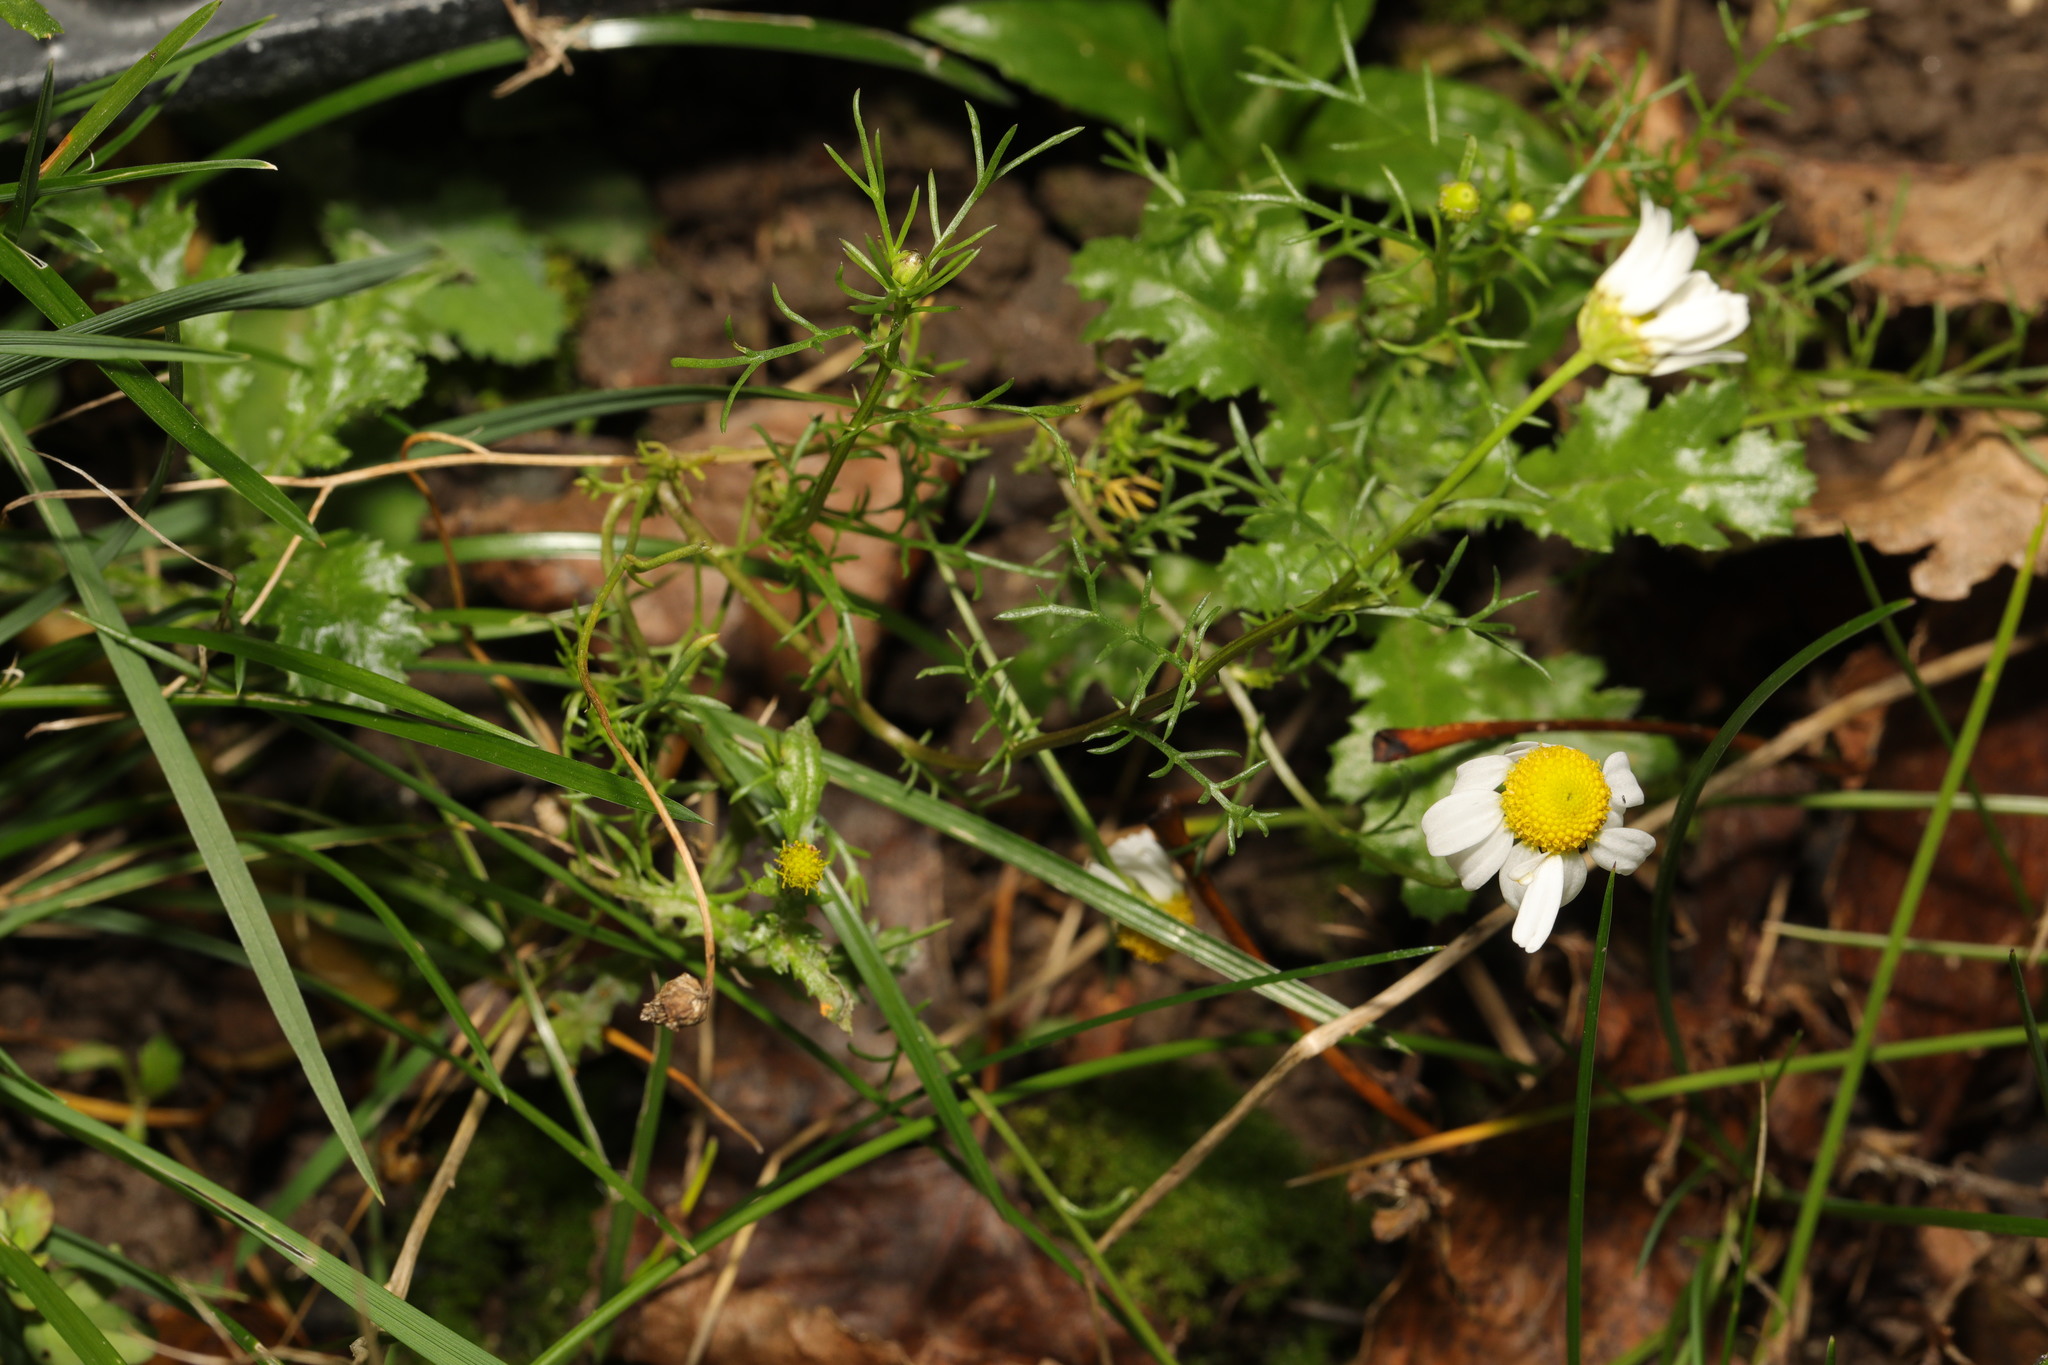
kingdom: Plantae
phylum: Tracheophyta
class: Magnoliopsida
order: Asterales
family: Asteraceae
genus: Tripleurospermum
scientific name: Tripleurospermum inodorum
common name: Scentless mayweed
